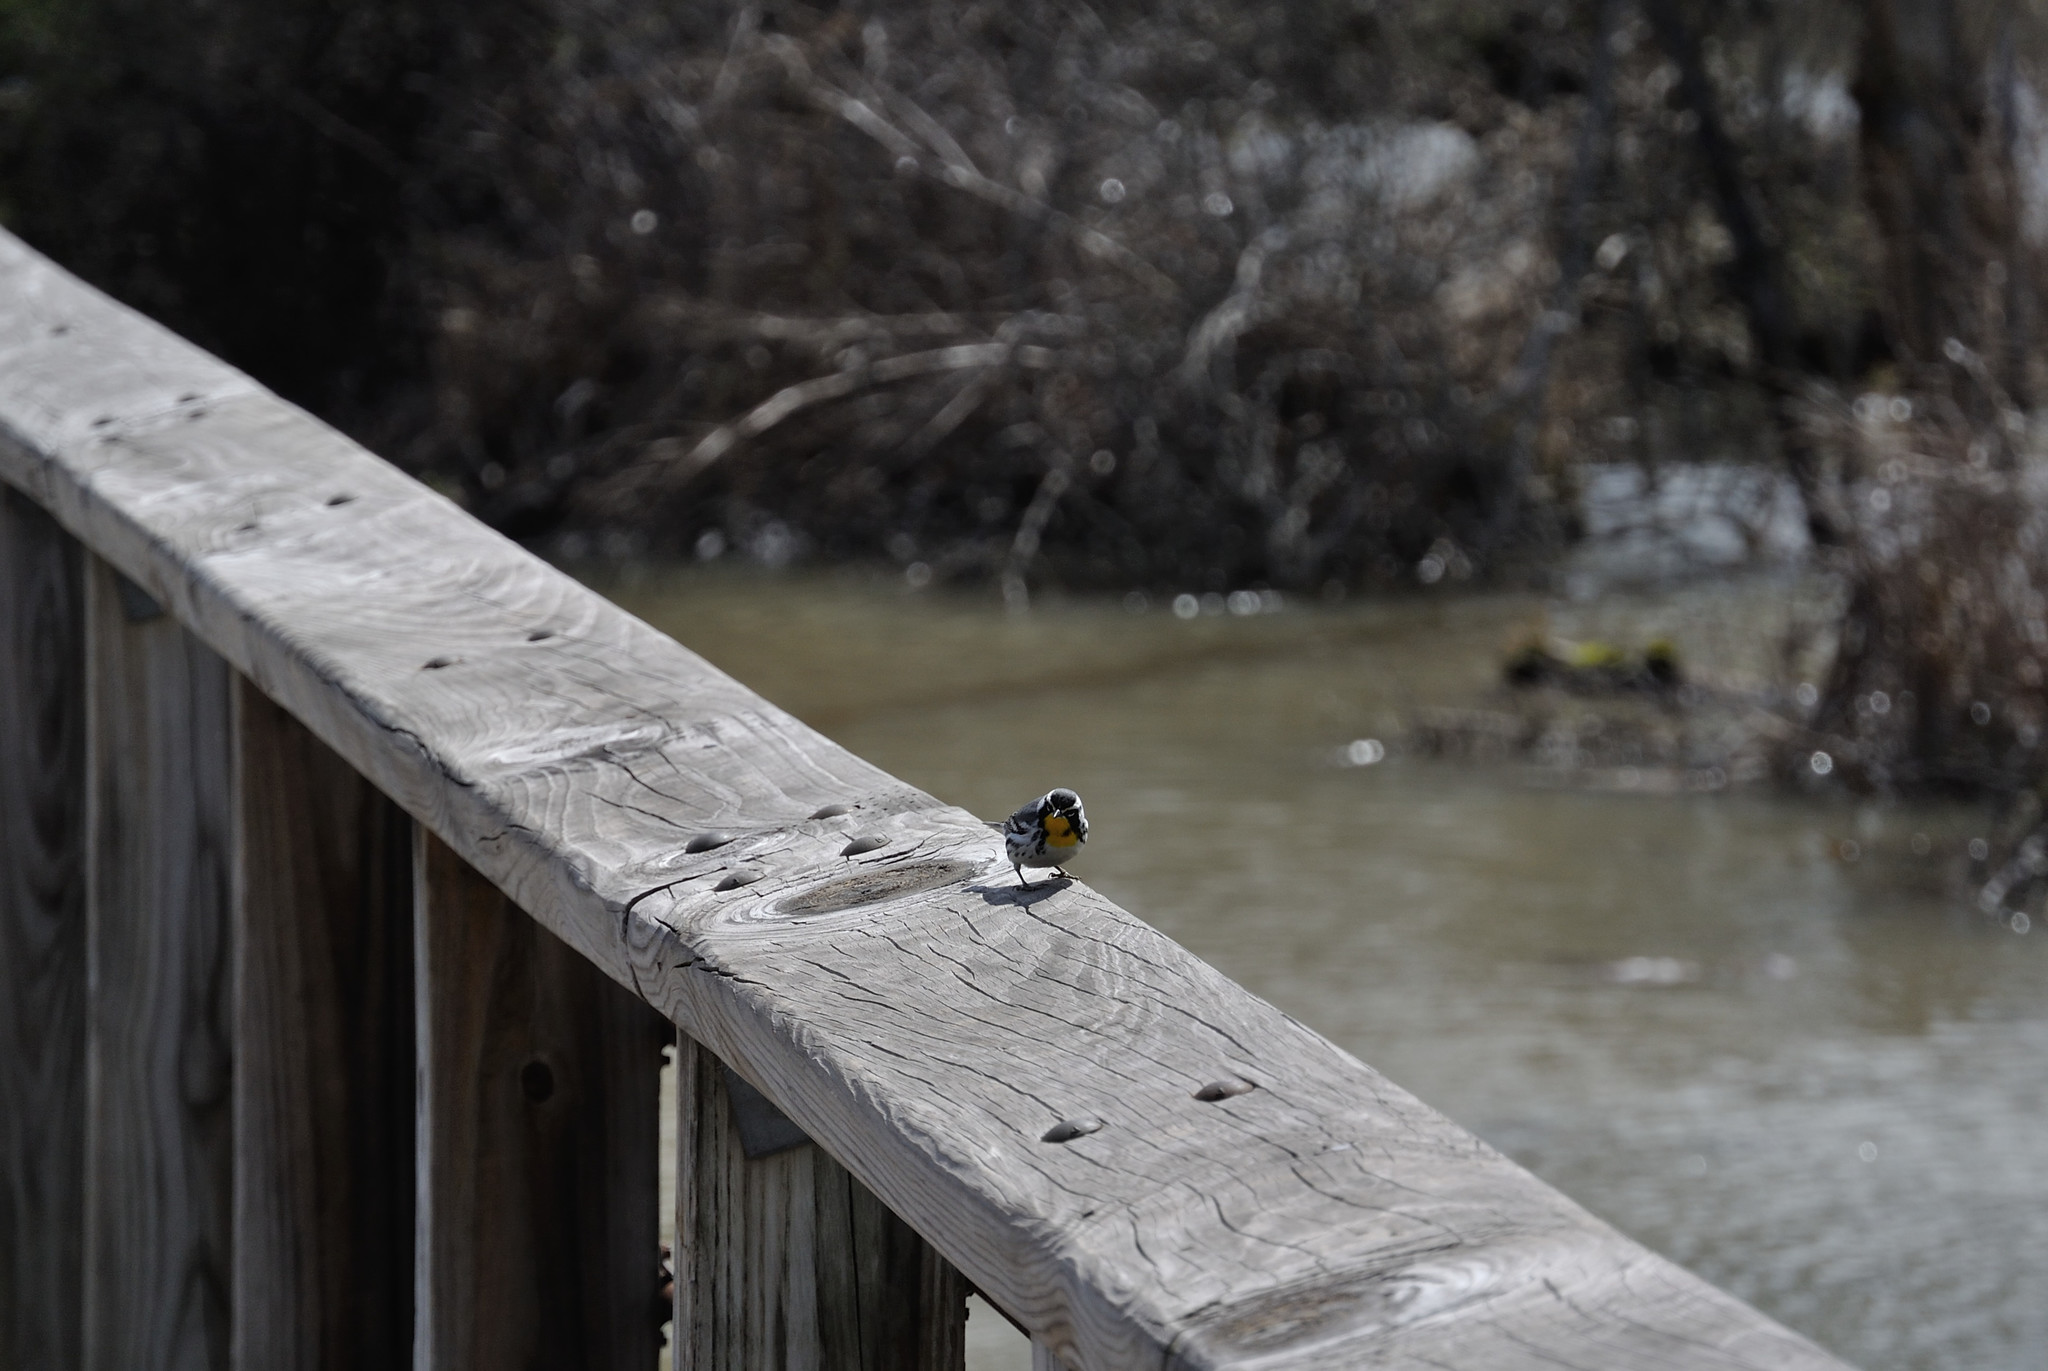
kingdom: Animalia
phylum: Chordata
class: Aves
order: Passeriformes
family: Parulidae
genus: Setophaga
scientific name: Setophaga dominica
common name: Yellow-throated warbler
